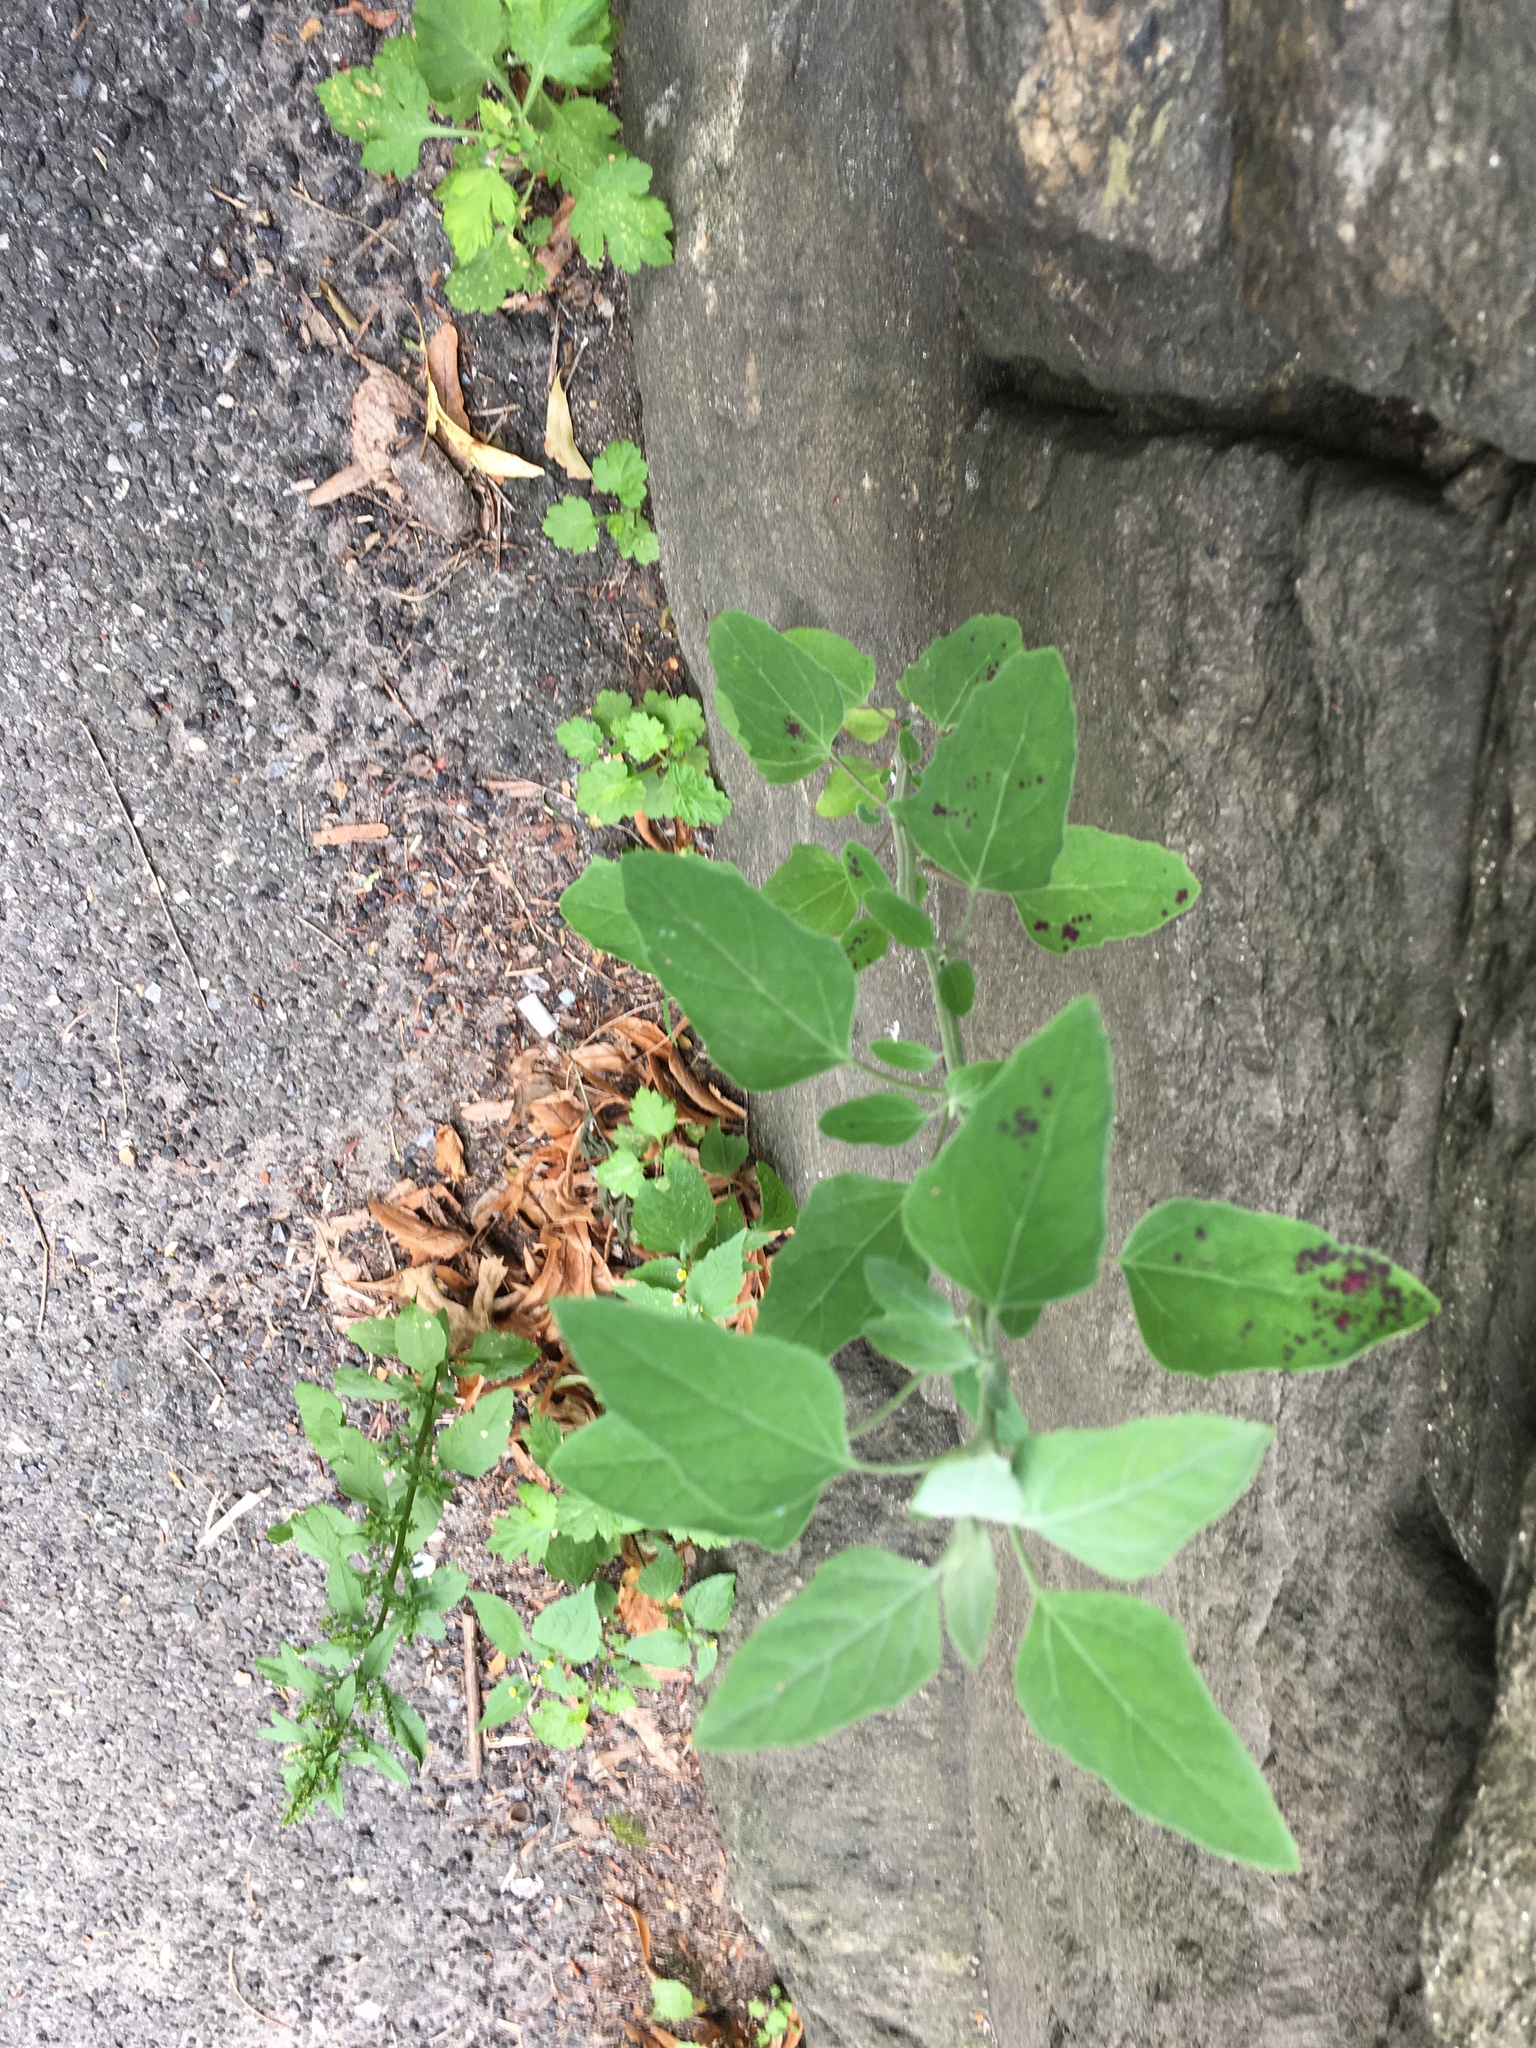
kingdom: Plantae
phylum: Tracheophyta
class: Magnoliopsida
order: Caryophyllales
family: Amaranthaceae
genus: Chenopodium
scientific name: Chenopodium album
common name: Fat-hen
